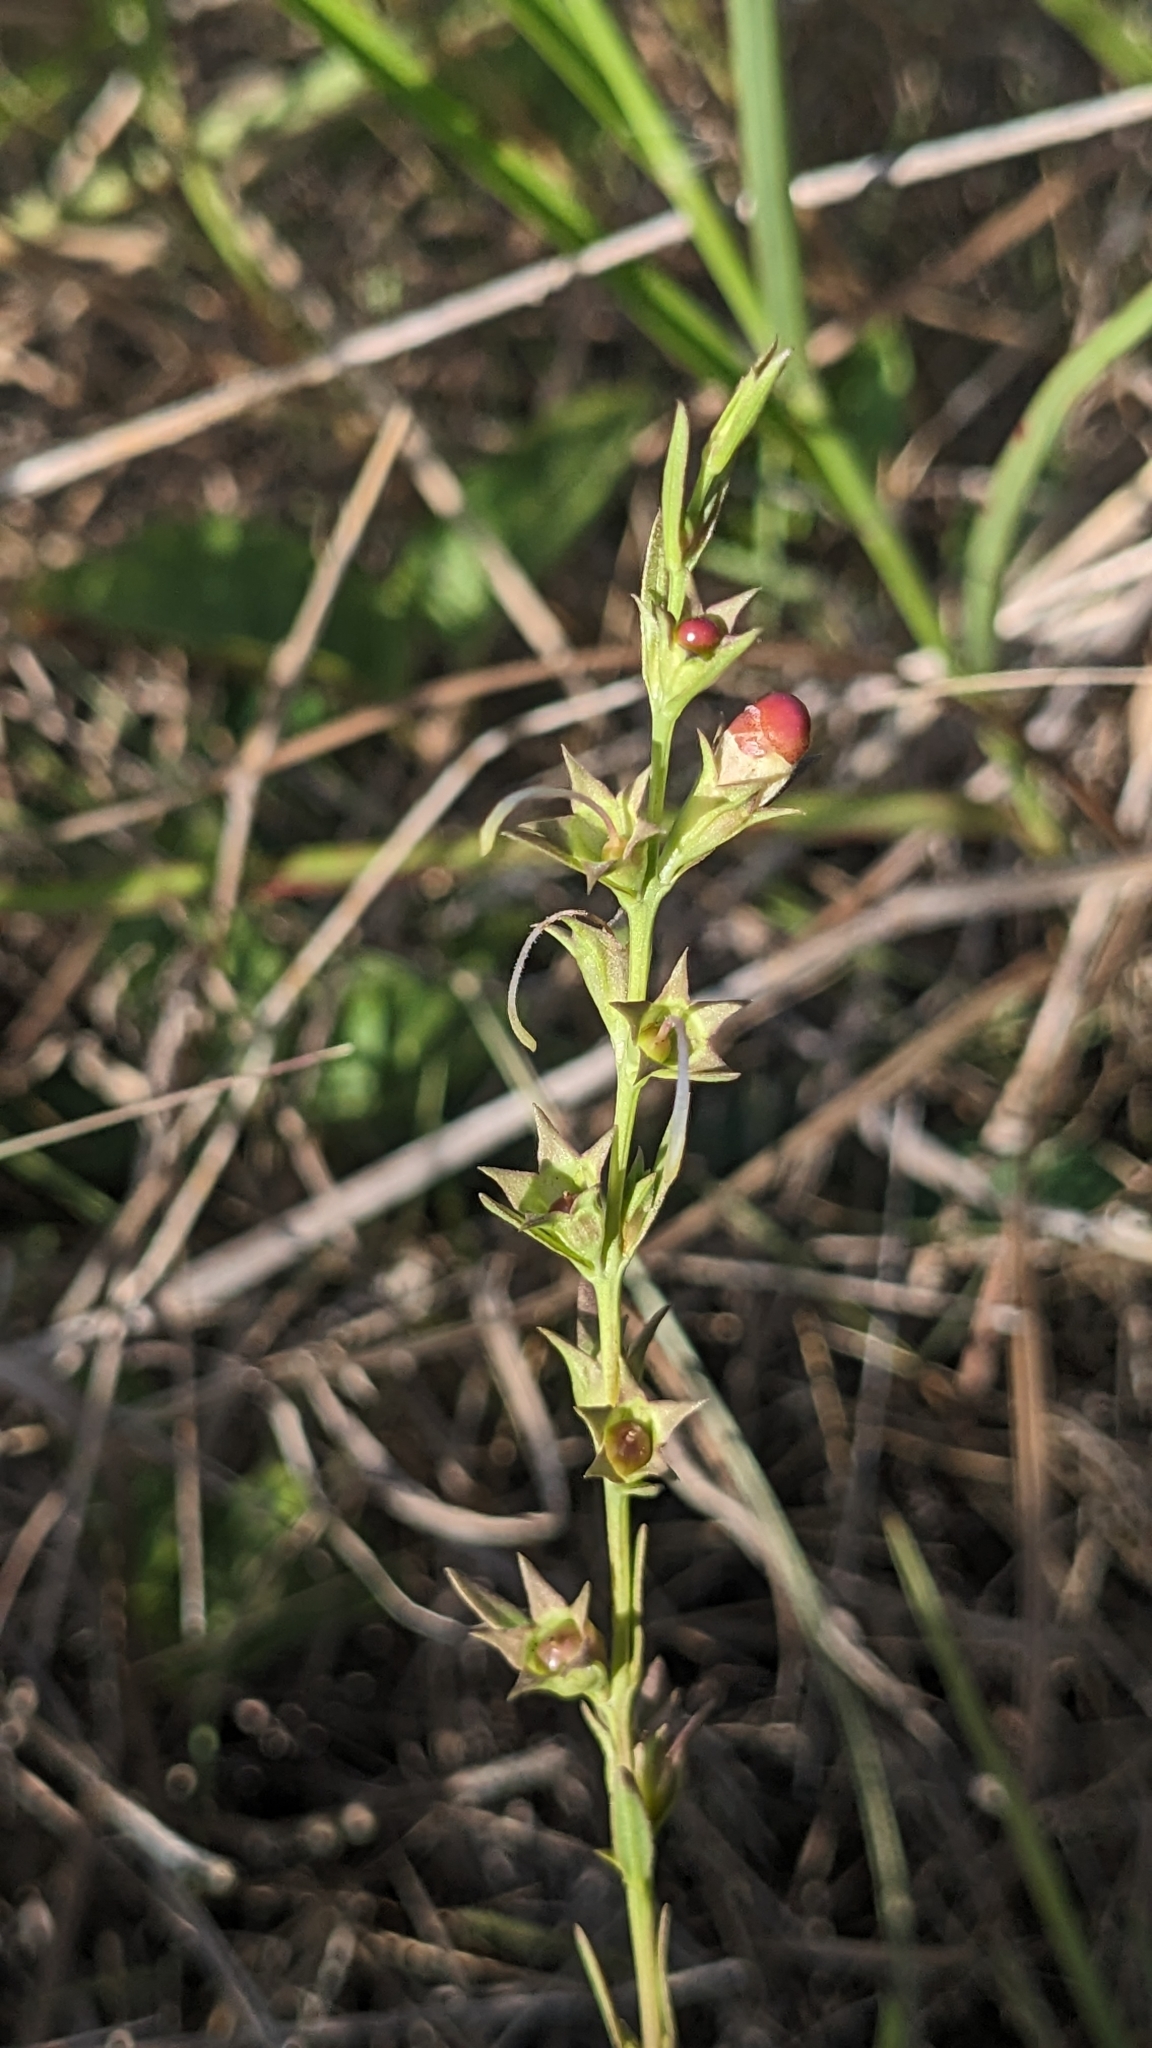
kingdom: Plantae
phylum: Tracheophyta
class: Magnoliopsida
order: Lamiales
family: Orobanchaceae
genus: Agalinis
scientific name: Agalinis heterophylla
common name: Prairie agalinis
